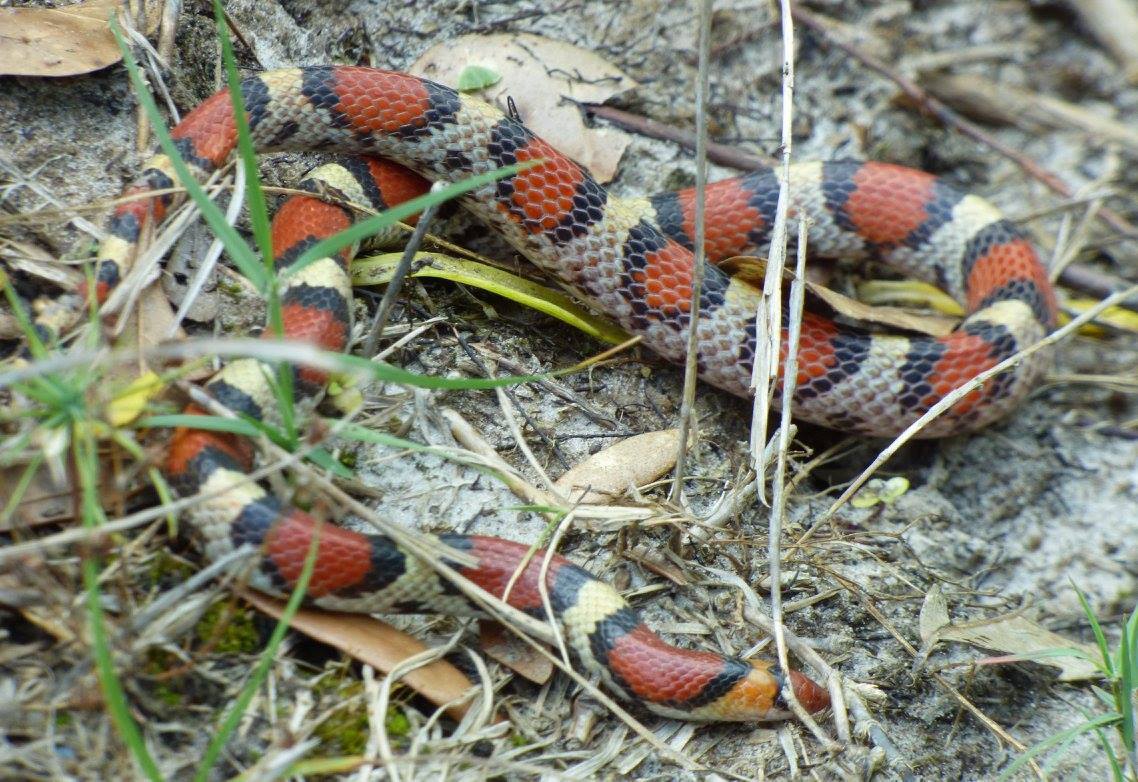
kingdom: Animalia
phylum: Chordata
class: Squamata
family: Colubridae
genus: Cemophora
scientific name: Cemophora coccinea
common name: Scarlet snake
